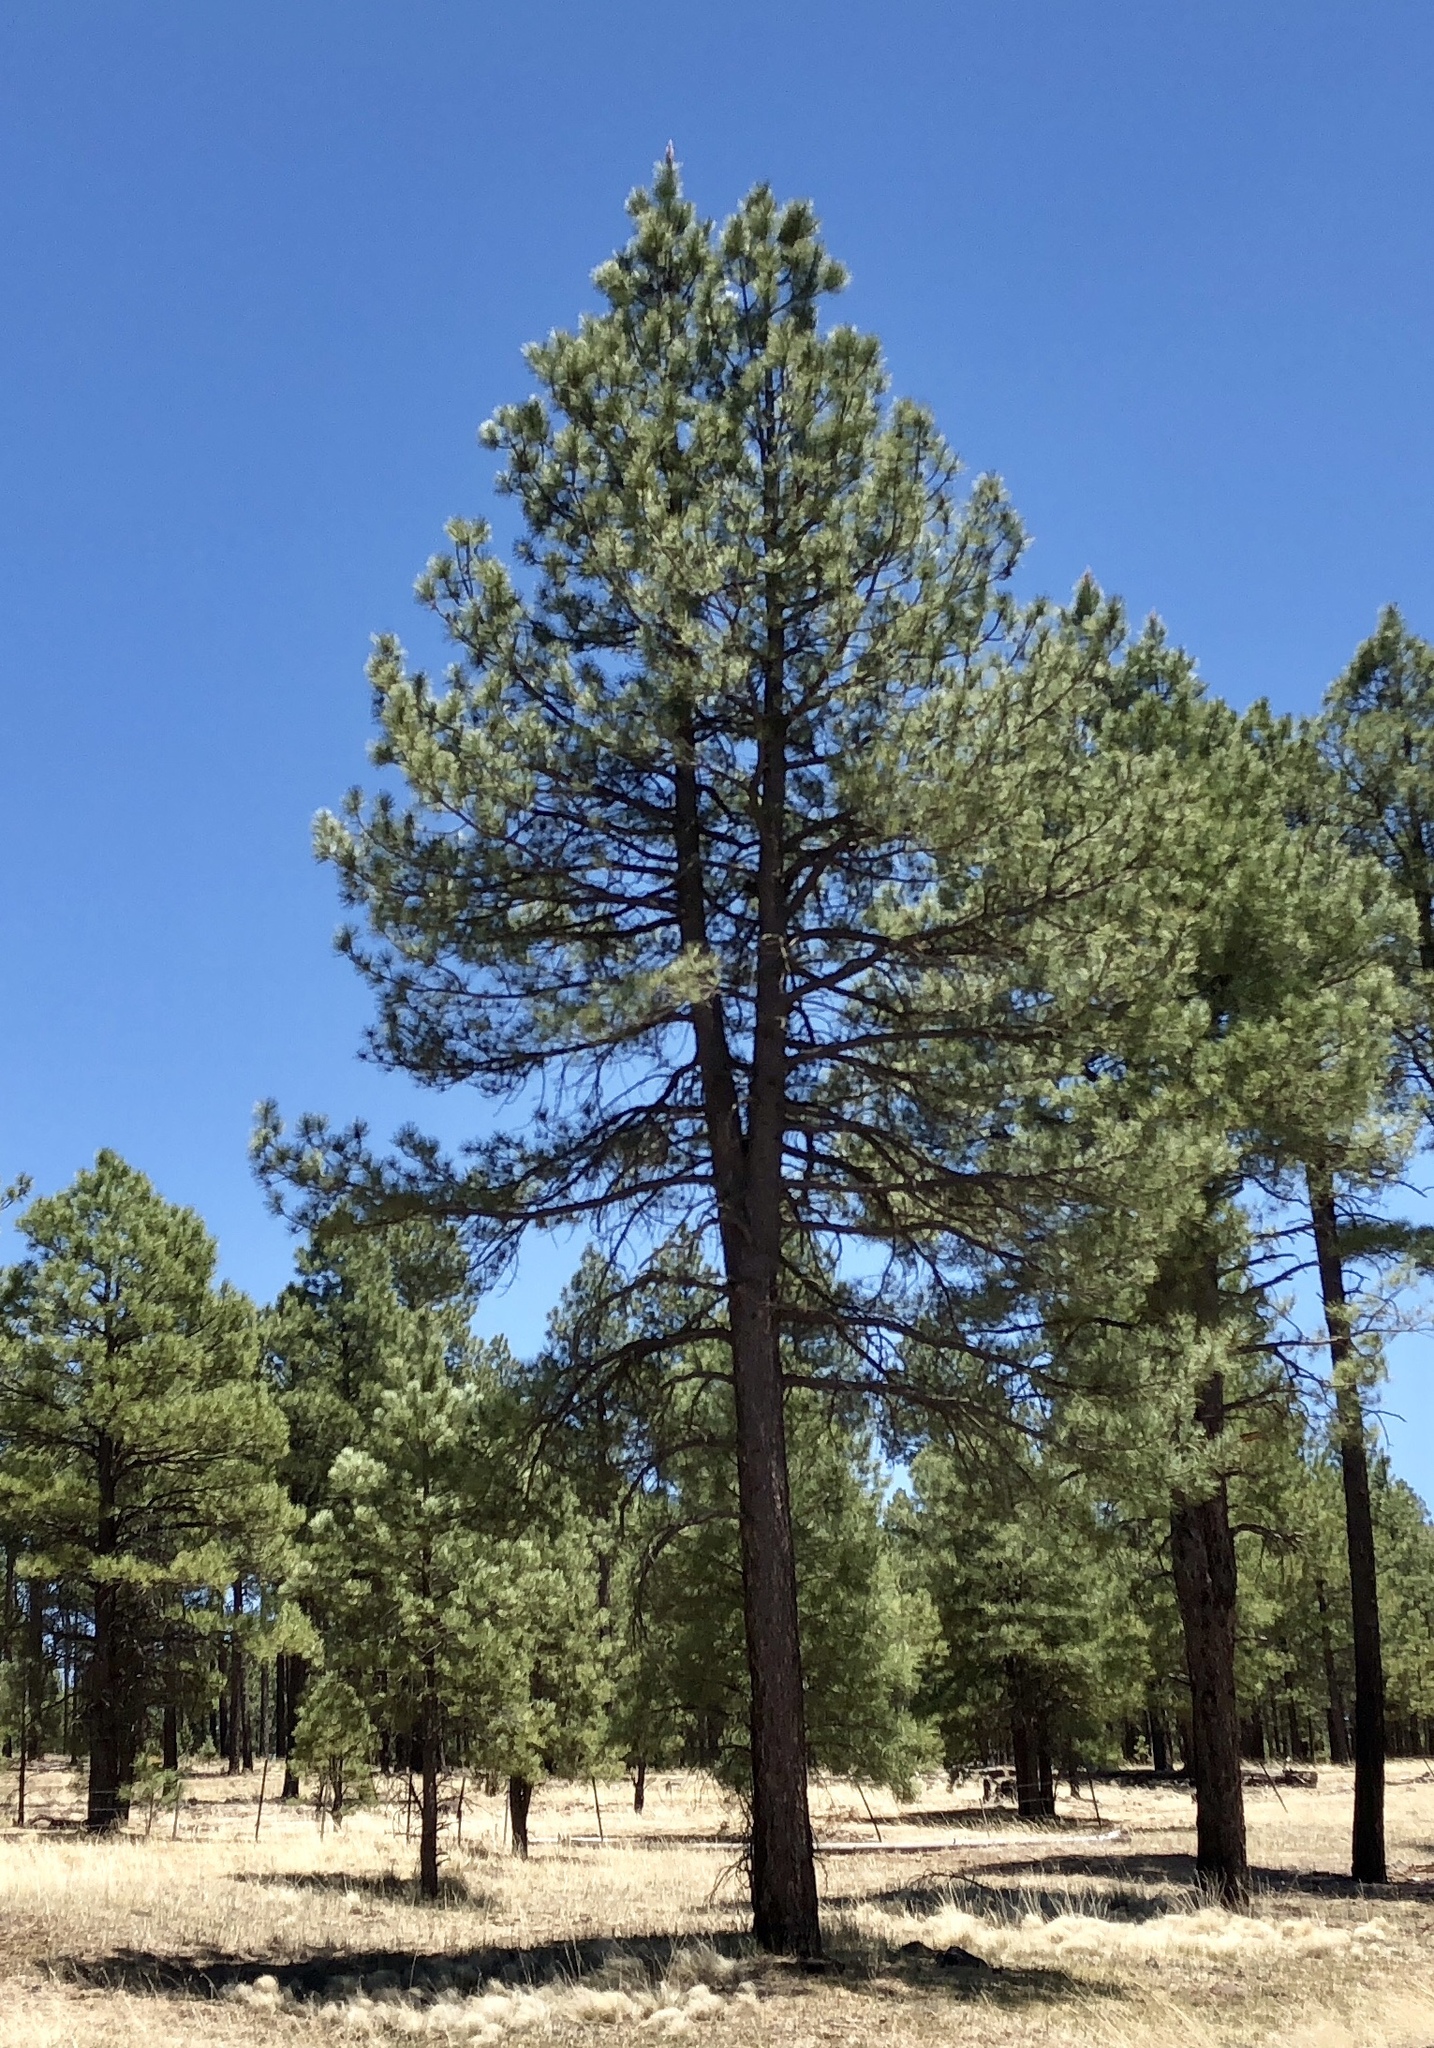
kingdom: Plantae
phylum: Tracheophyta
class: Pinopsida
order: Pinales
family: Pinaceae
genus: Pinus
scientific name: Pinus ponderosa
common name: Western yellow-pine
